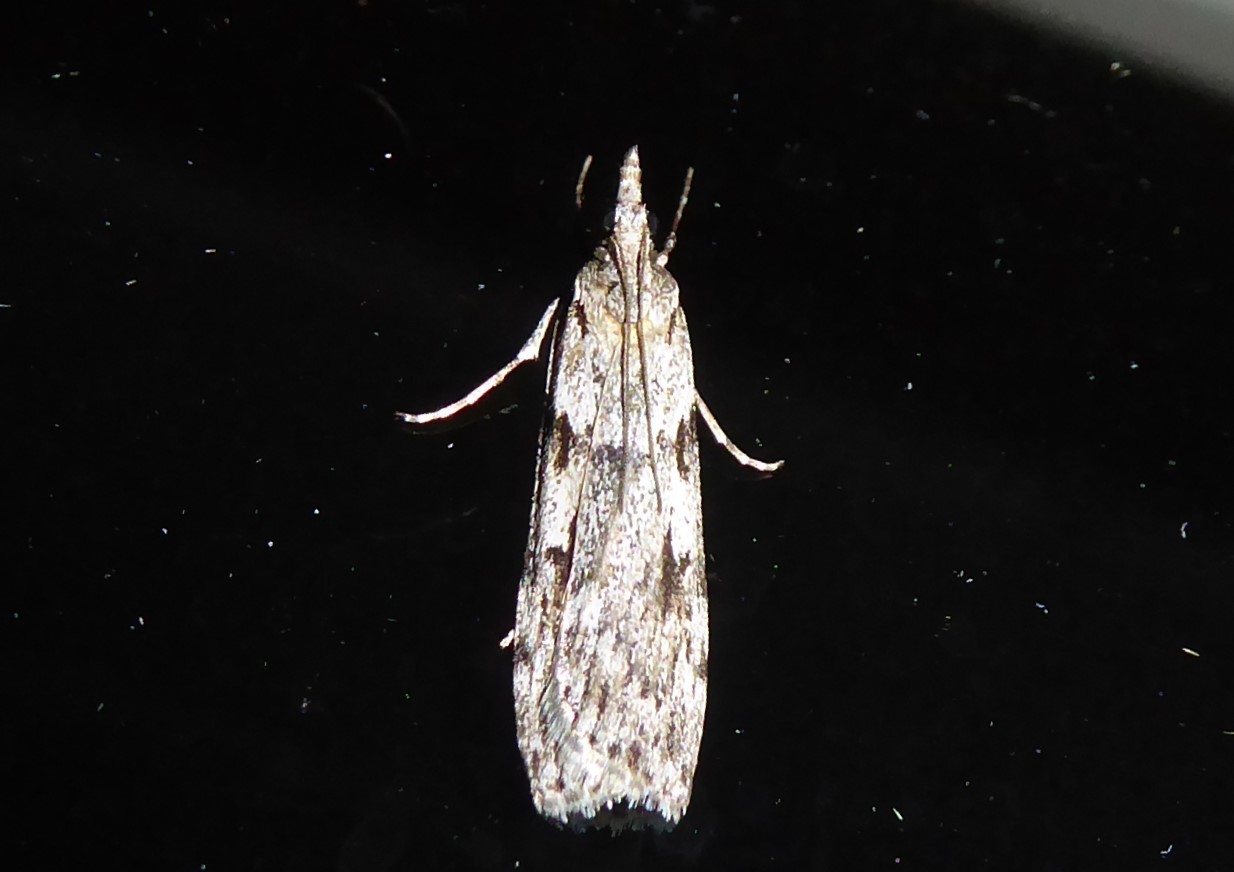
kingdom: Animalia
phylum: Arthropoda
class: Insecta
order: Lepidoptera
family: Crambidae
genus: Scoparia
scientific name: Scoparia halopis
